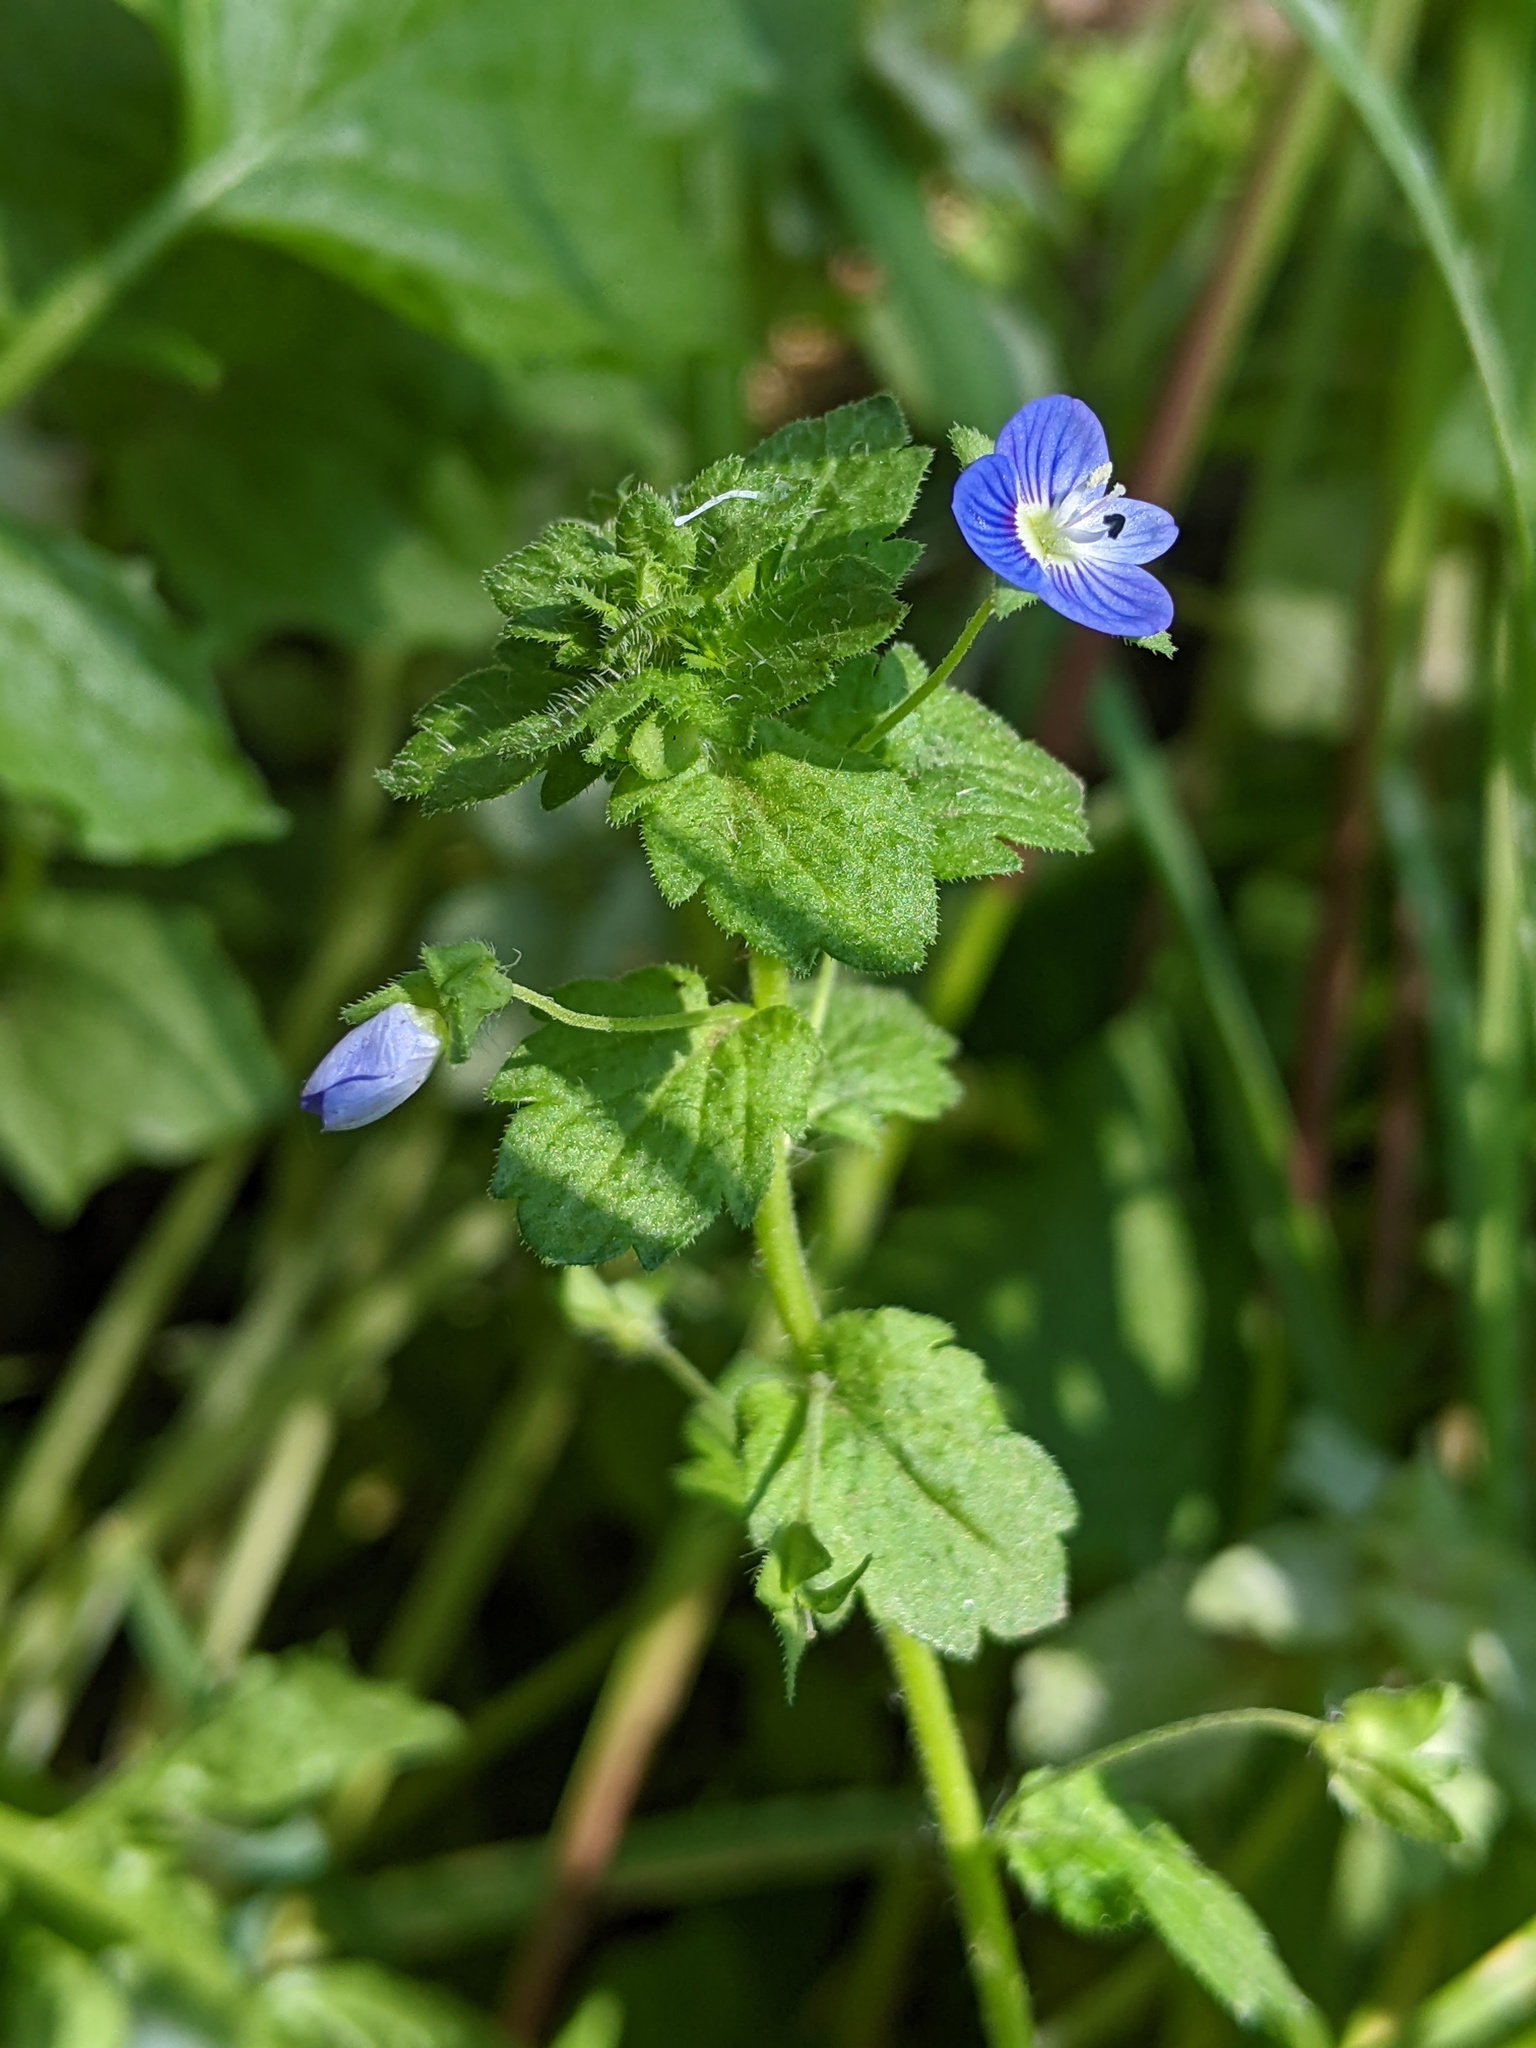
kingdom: Plantae
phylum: Tracheophyta
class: Magnoliopsida
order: Lamiales
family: Plantaginaceae
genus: Veronica
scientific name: Veronica persica
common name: Common field-speedwell
